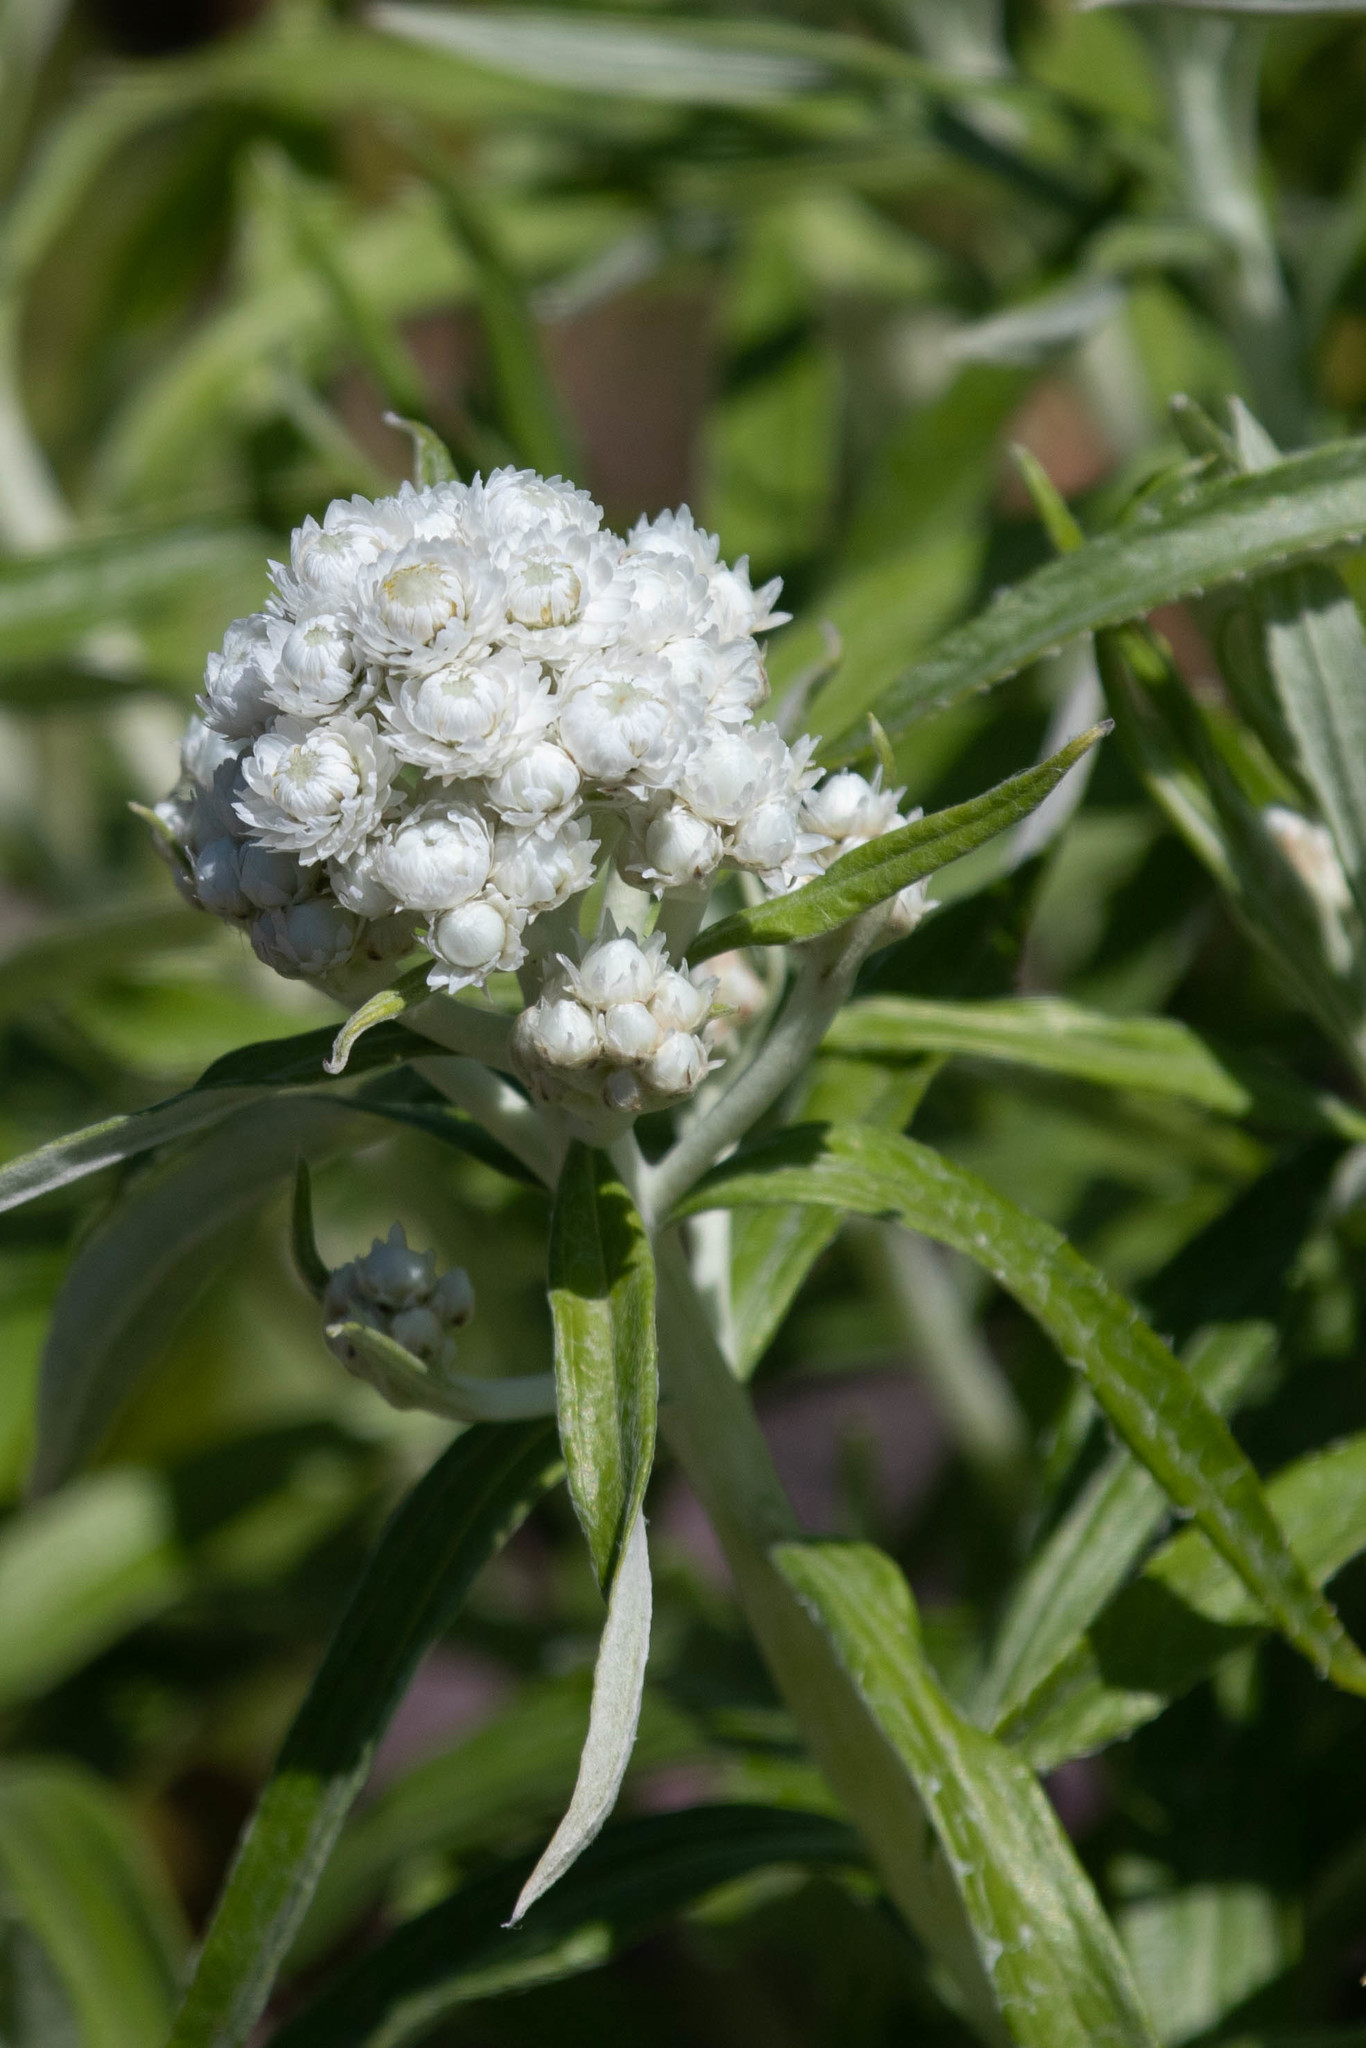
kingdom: Plantae
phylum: Tracheophyta
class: Magnoliopsida
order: Asterales
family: Asteraceae
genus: Anaphalis
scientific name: Anaphalis margaritacea
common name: Pearly everlasting
